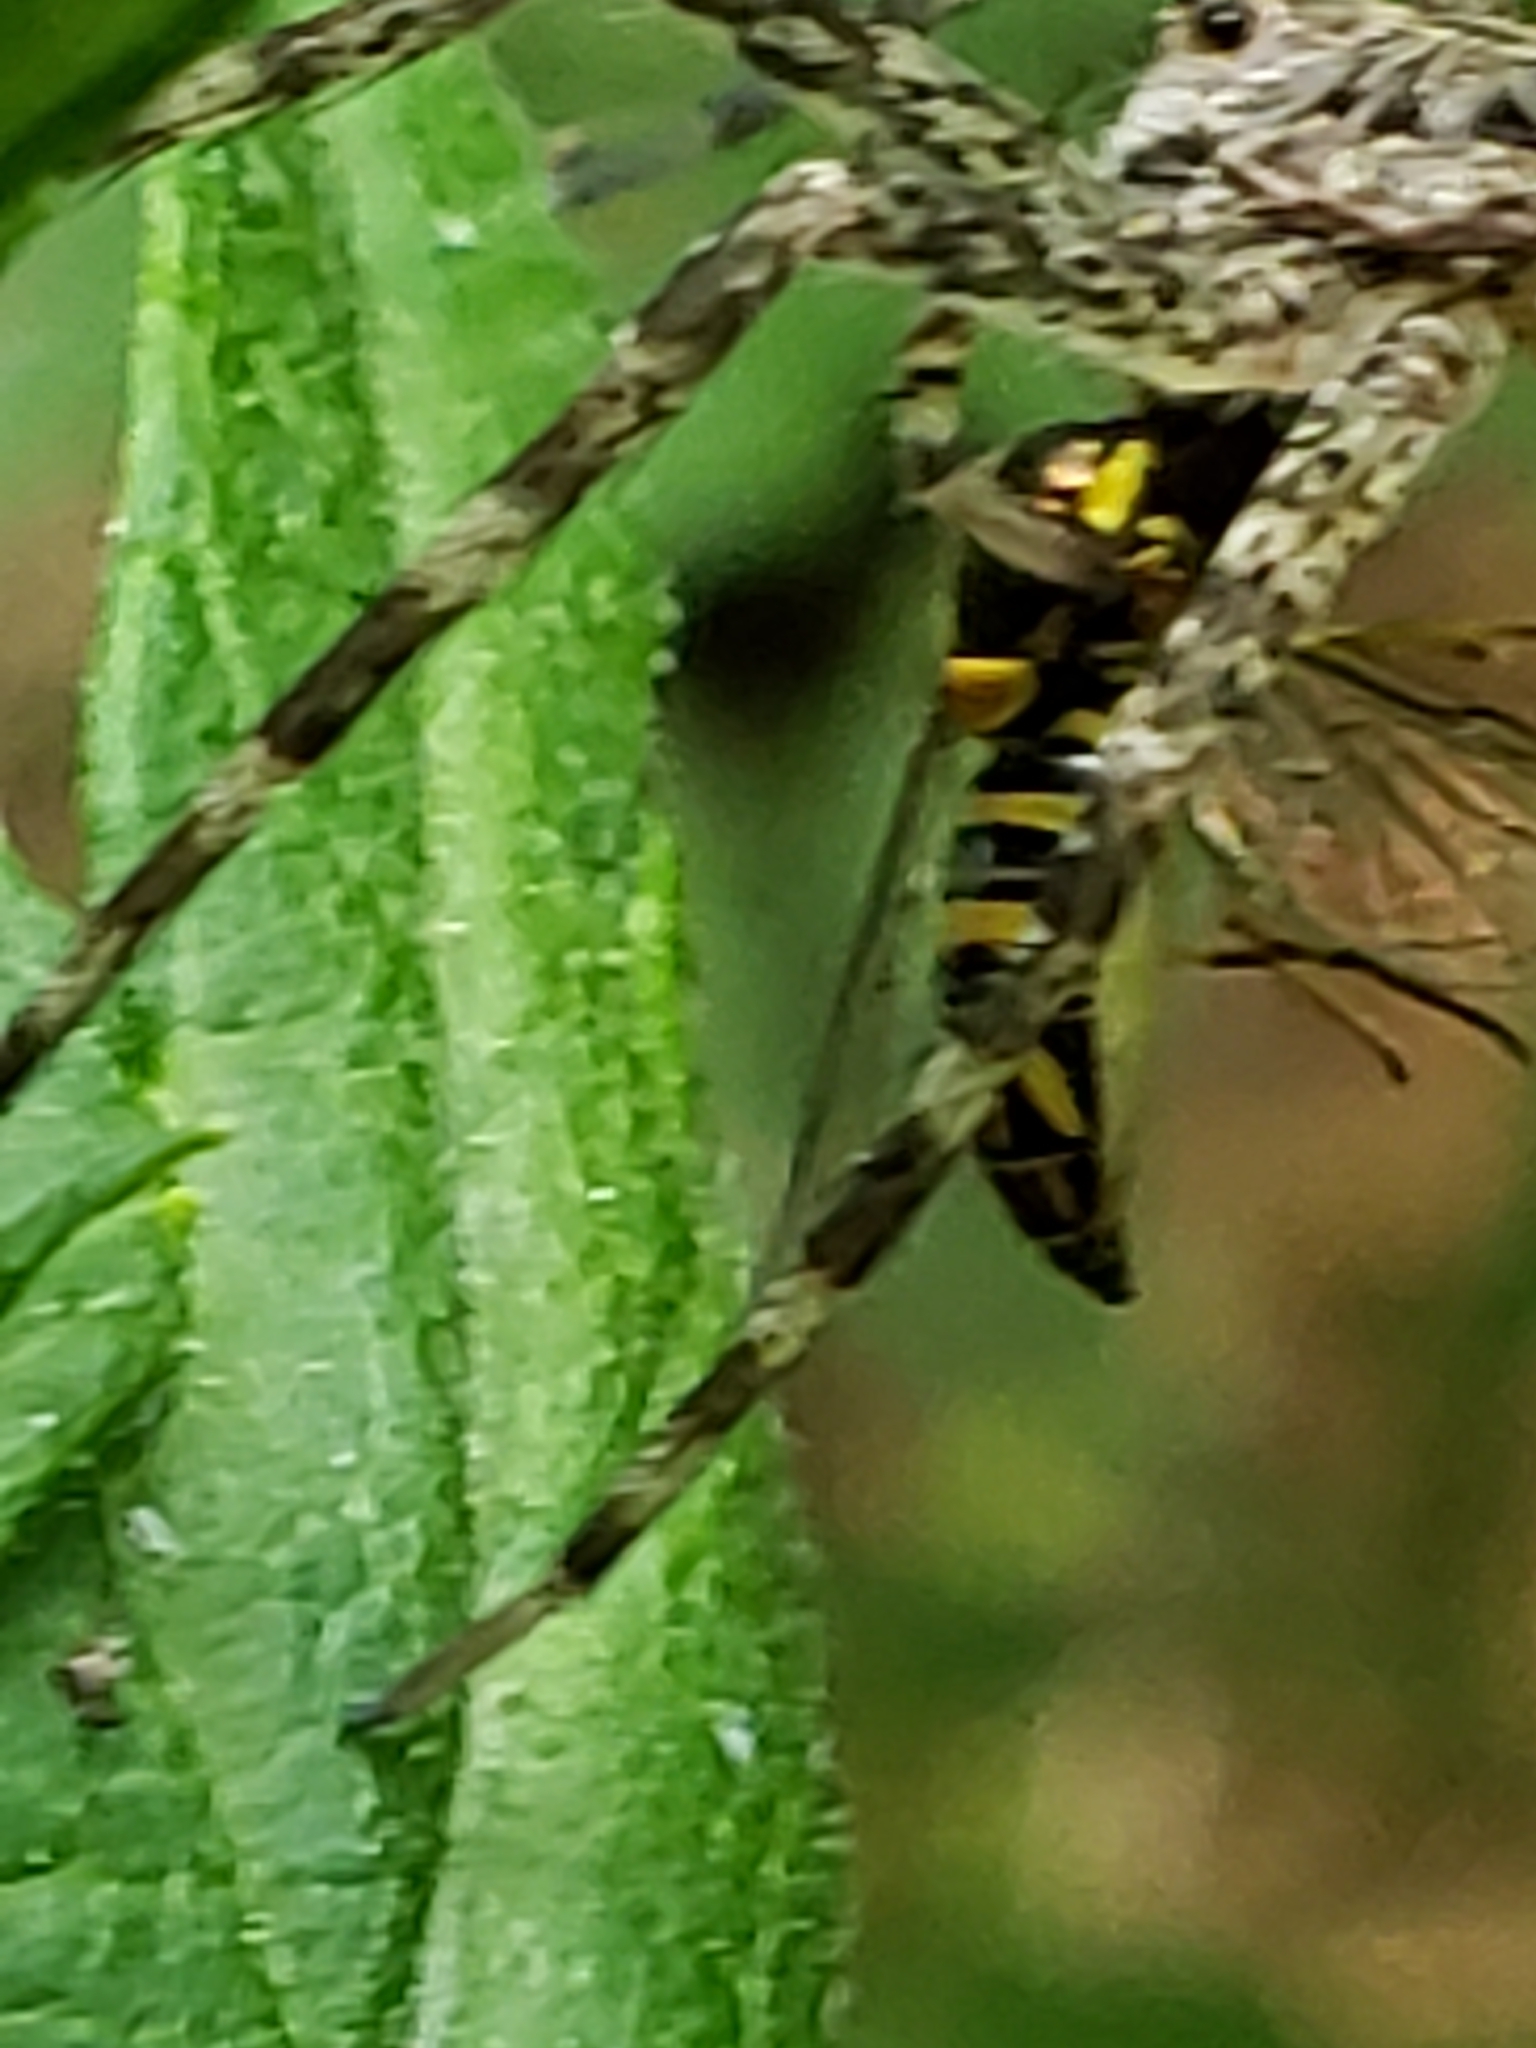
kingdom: Animalia
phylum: Arthropoda
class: Insecta
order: Diptera
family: Syrphidae
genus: Allograpta
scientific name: Allograpta obliqua
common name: Common oblique syrphid
